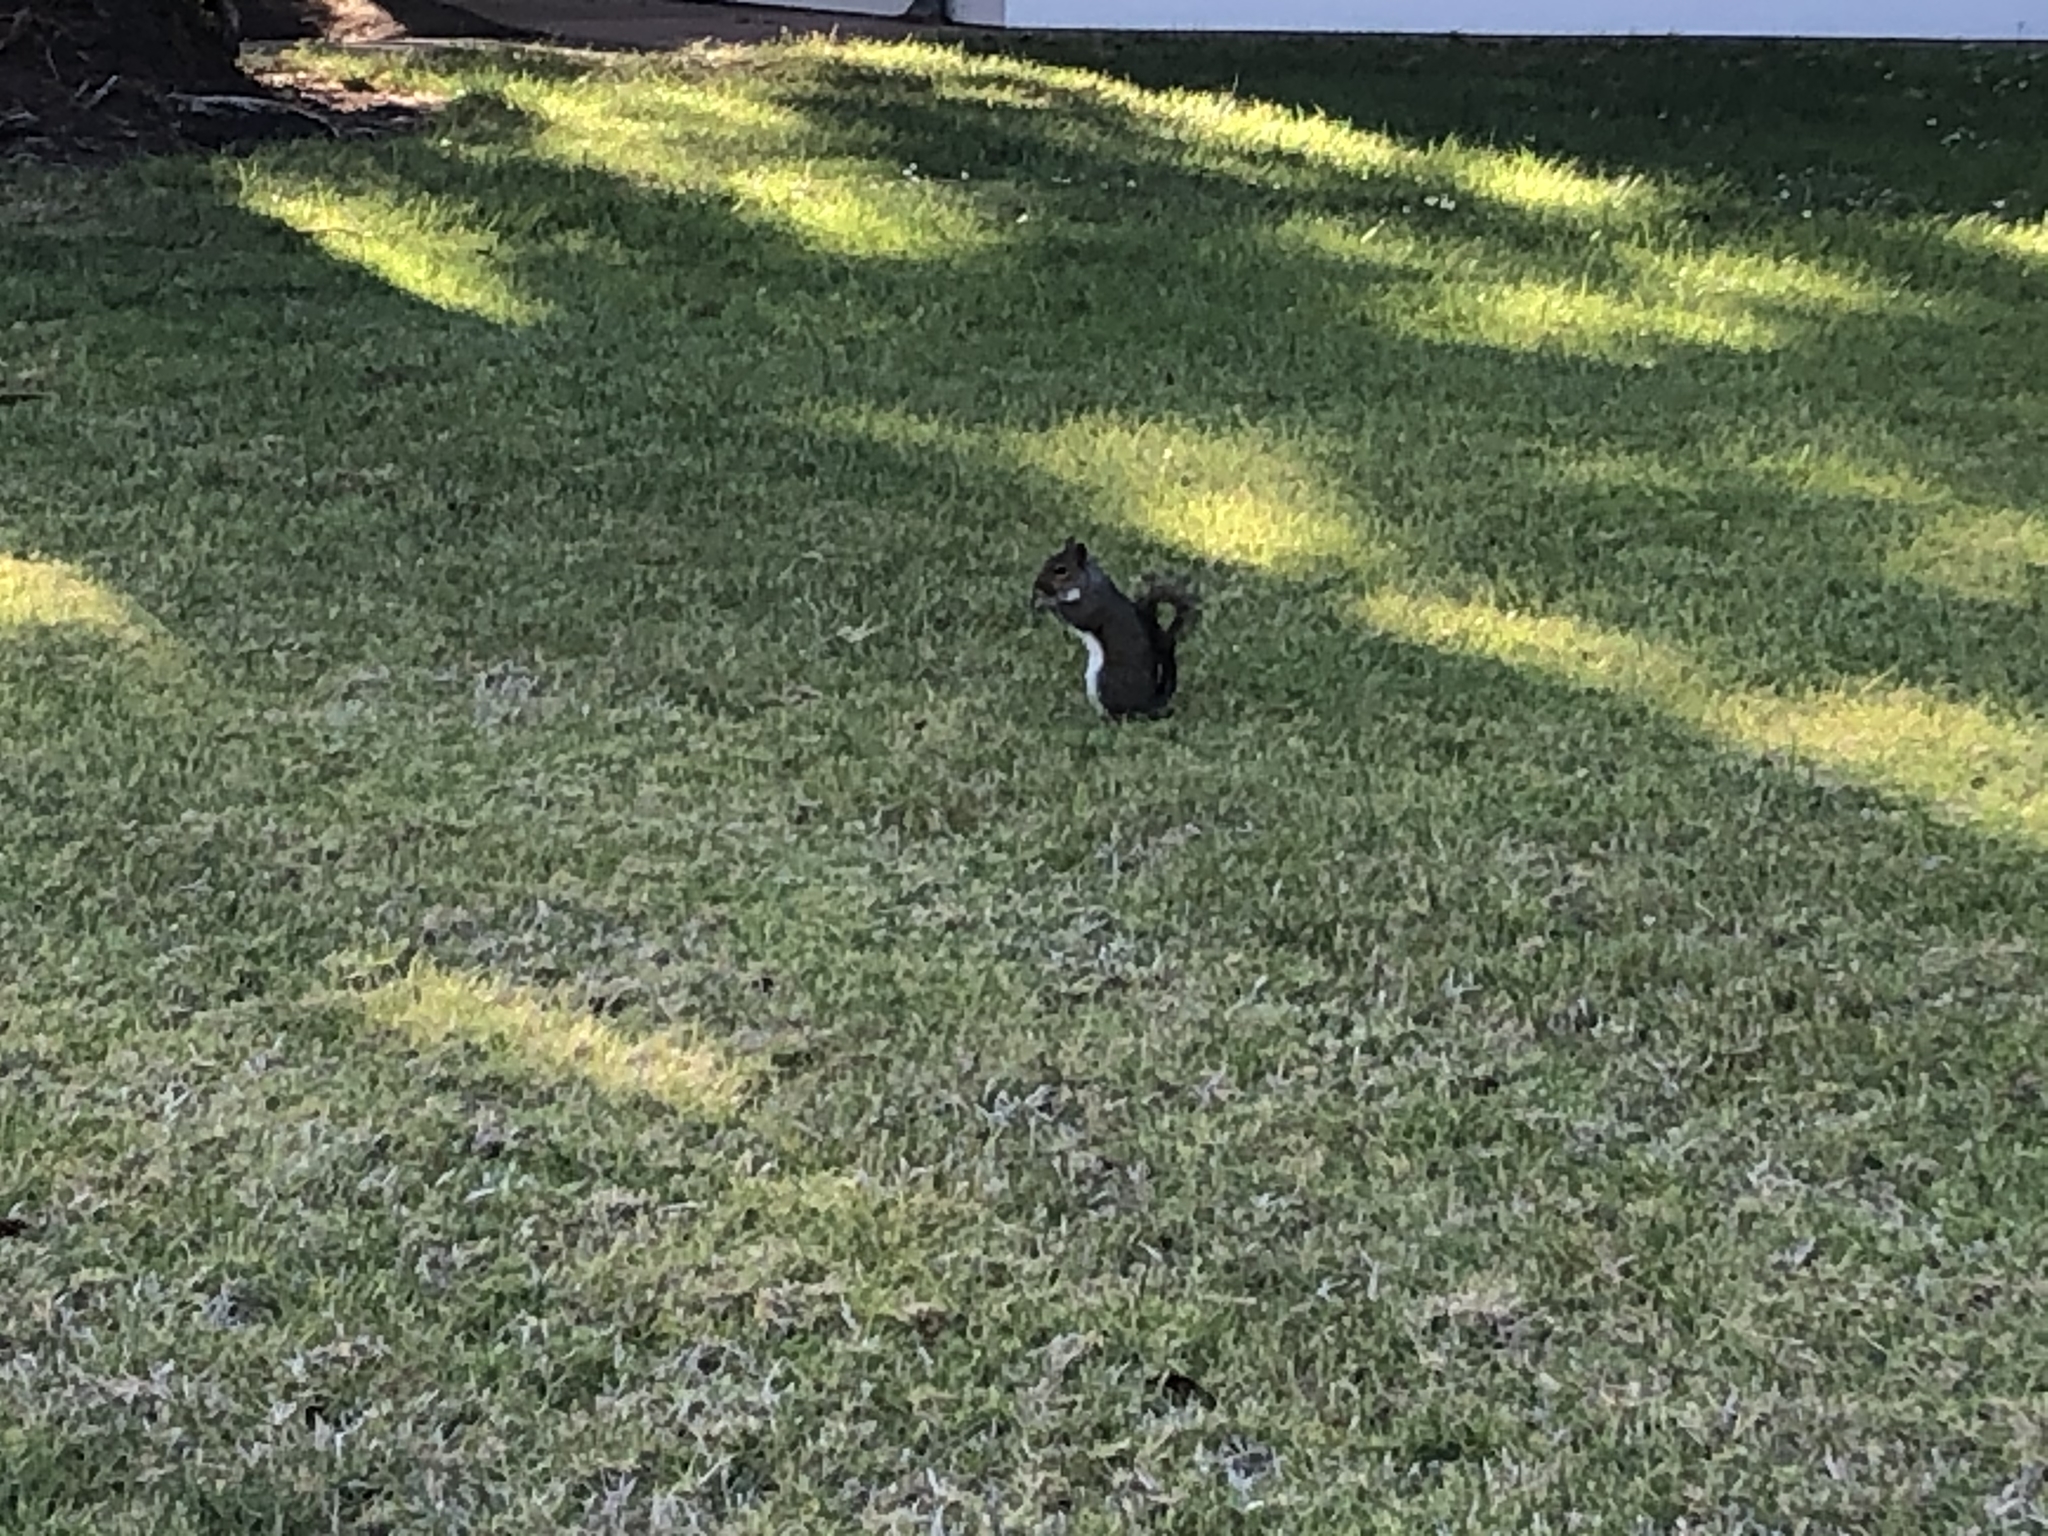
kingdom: Animalia
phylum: Chordata
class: Mammalia
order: Rodentia
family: Sciuridae
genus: Sciurus
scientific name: Sciurus carolinensis
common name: Eastern gray squirrel
